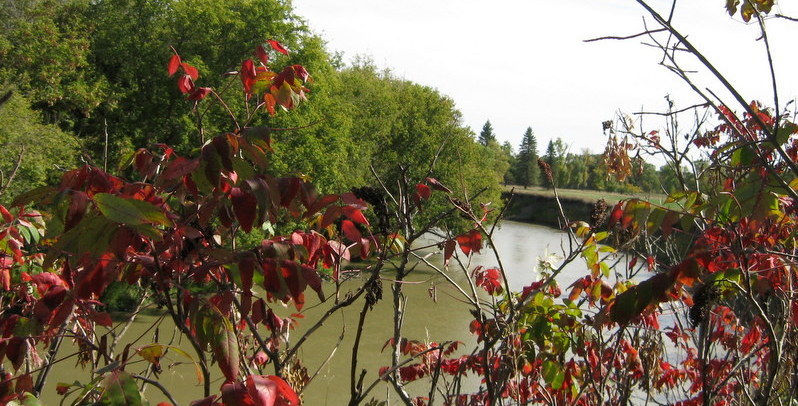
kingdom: Plantae
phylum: Tracheophyta
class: Magnoliopsida
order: Sapindales
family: Anacardiaceae
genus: Rhus
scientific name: Rhus typhina
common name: Staghorn sumac
